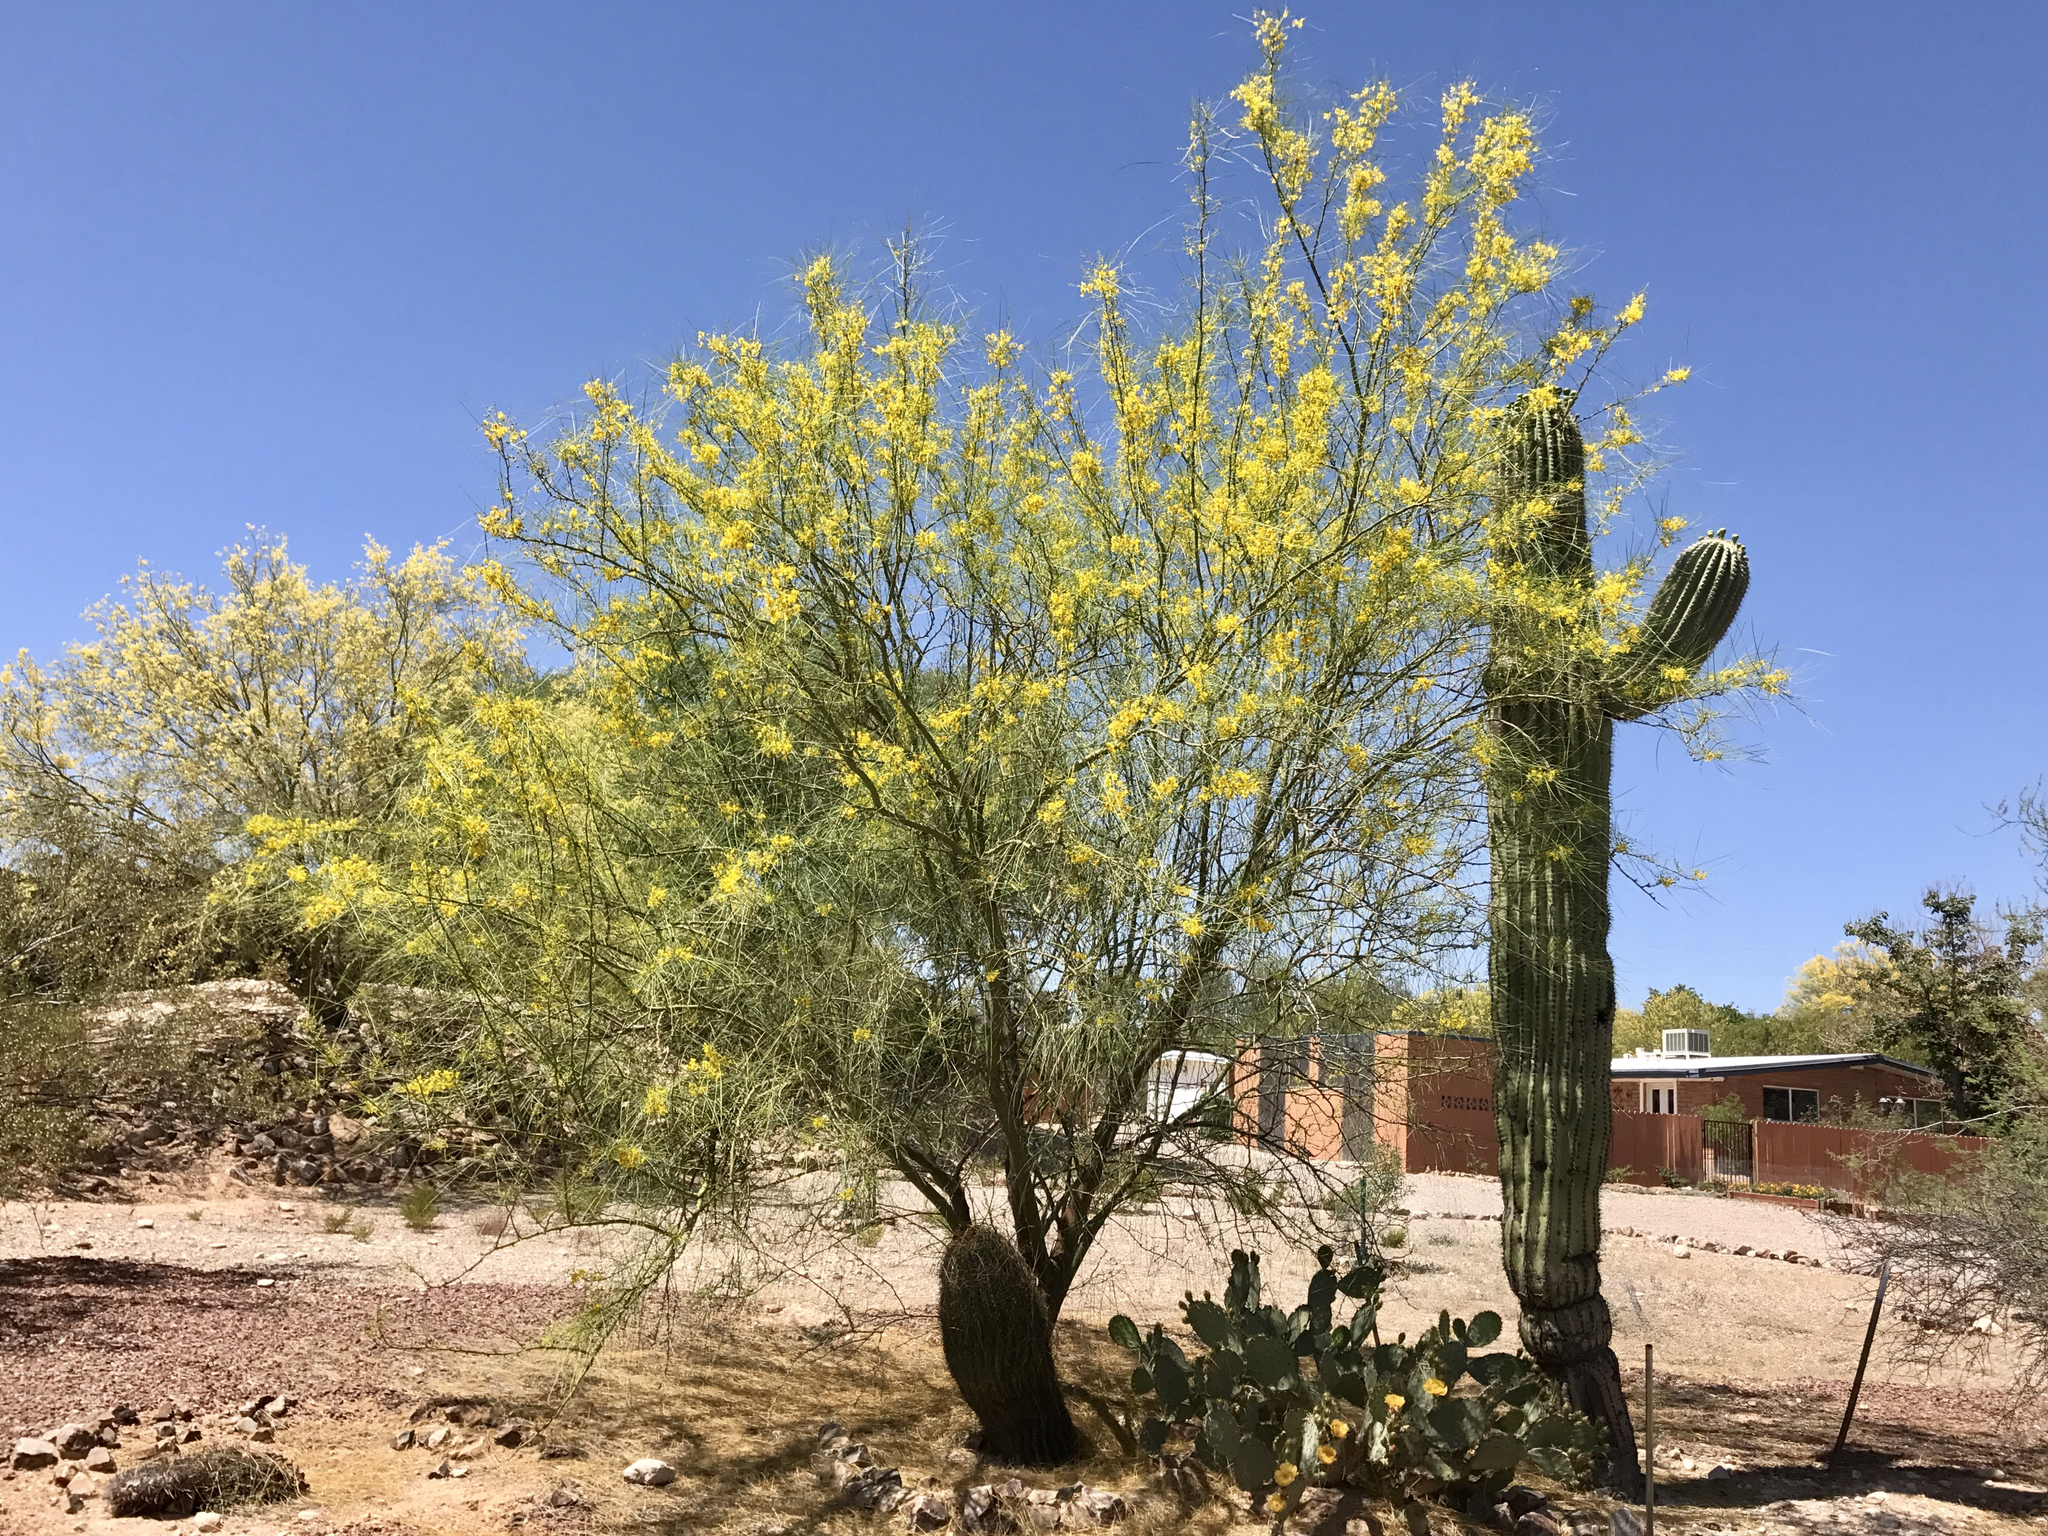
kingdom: Plantae
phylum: Tracheophyta
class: Magnoliopsida
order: Fabales
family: Fabaceae
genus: Parkinsonia
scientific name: Parkinsonia florida
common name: Blue paloverde
